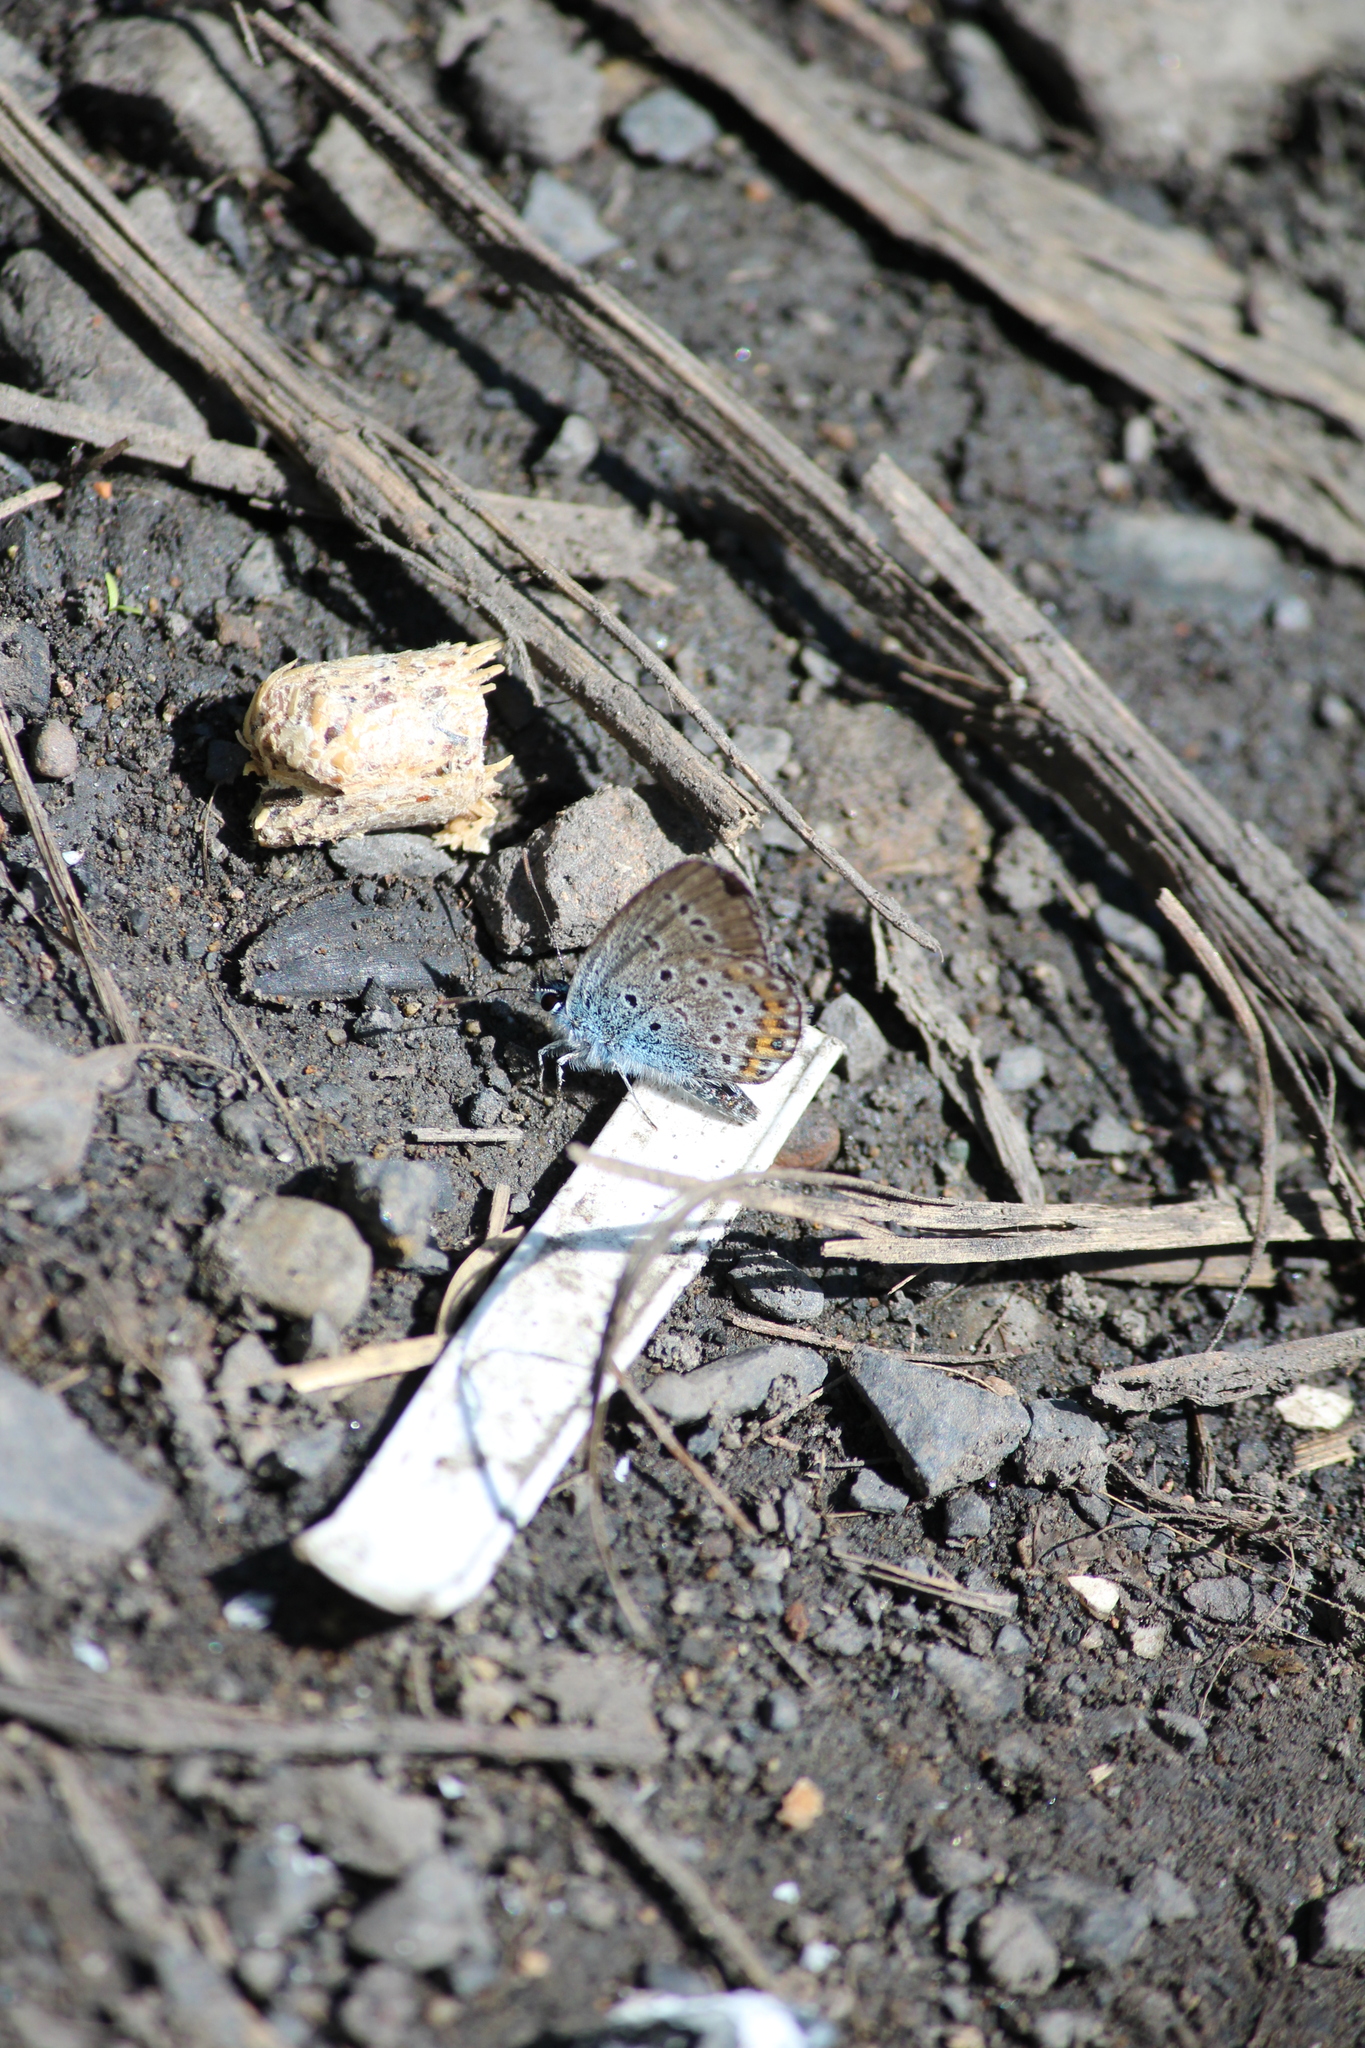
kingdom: Animalia
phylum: Arthropoda
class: Insecta
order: Lepidoptera
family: Lycaenidae
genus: Plebejus
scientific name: Plebejus argus
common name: Silver-studded blue
